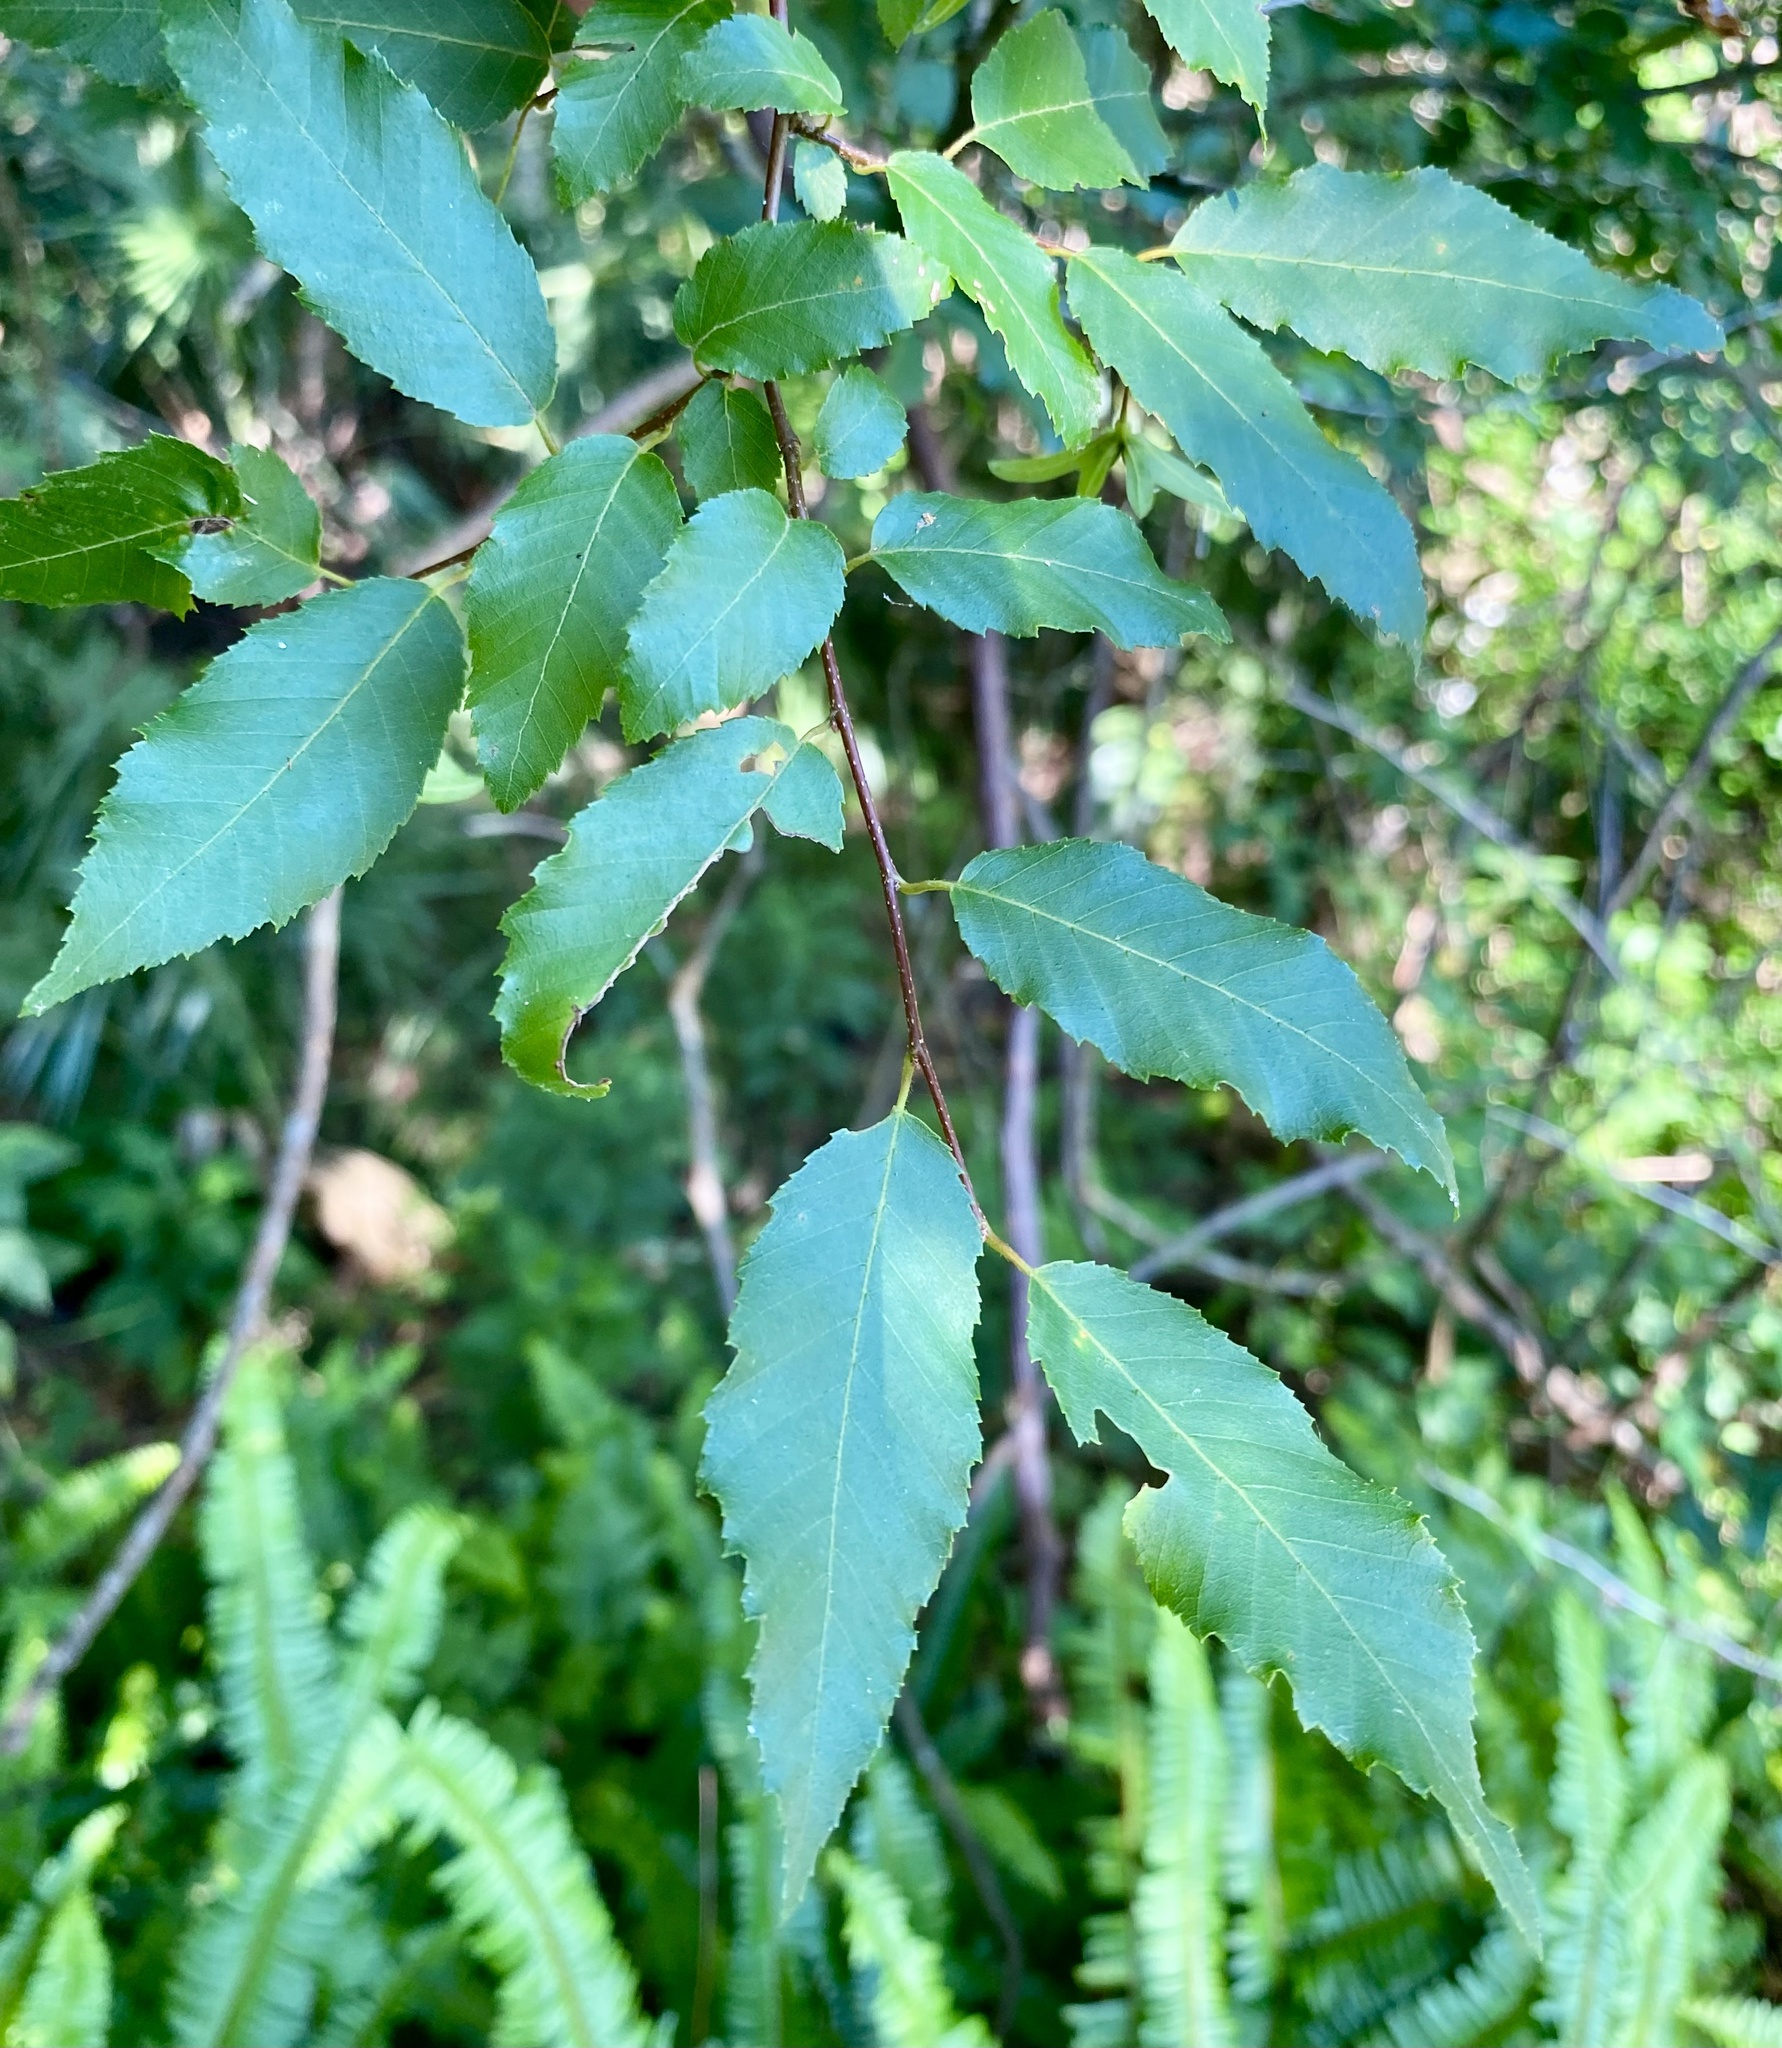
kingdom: Plantae
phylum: Tracheophyta
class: Magnoliopsida
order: Fagales
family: Betulaceae
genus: Carpinus
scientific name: Carpinus caroliniana
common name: American hornbeam
